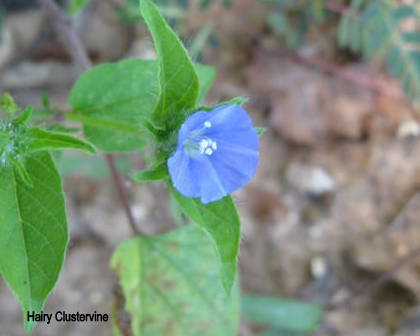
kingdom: Plantae
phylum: Tracheophyta
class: Magnoliopsida
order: Solanales
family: Convolvulaceae
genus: Jacquemontia
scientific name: Jacquemontia tamnifolia
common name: Hairy clustervine
